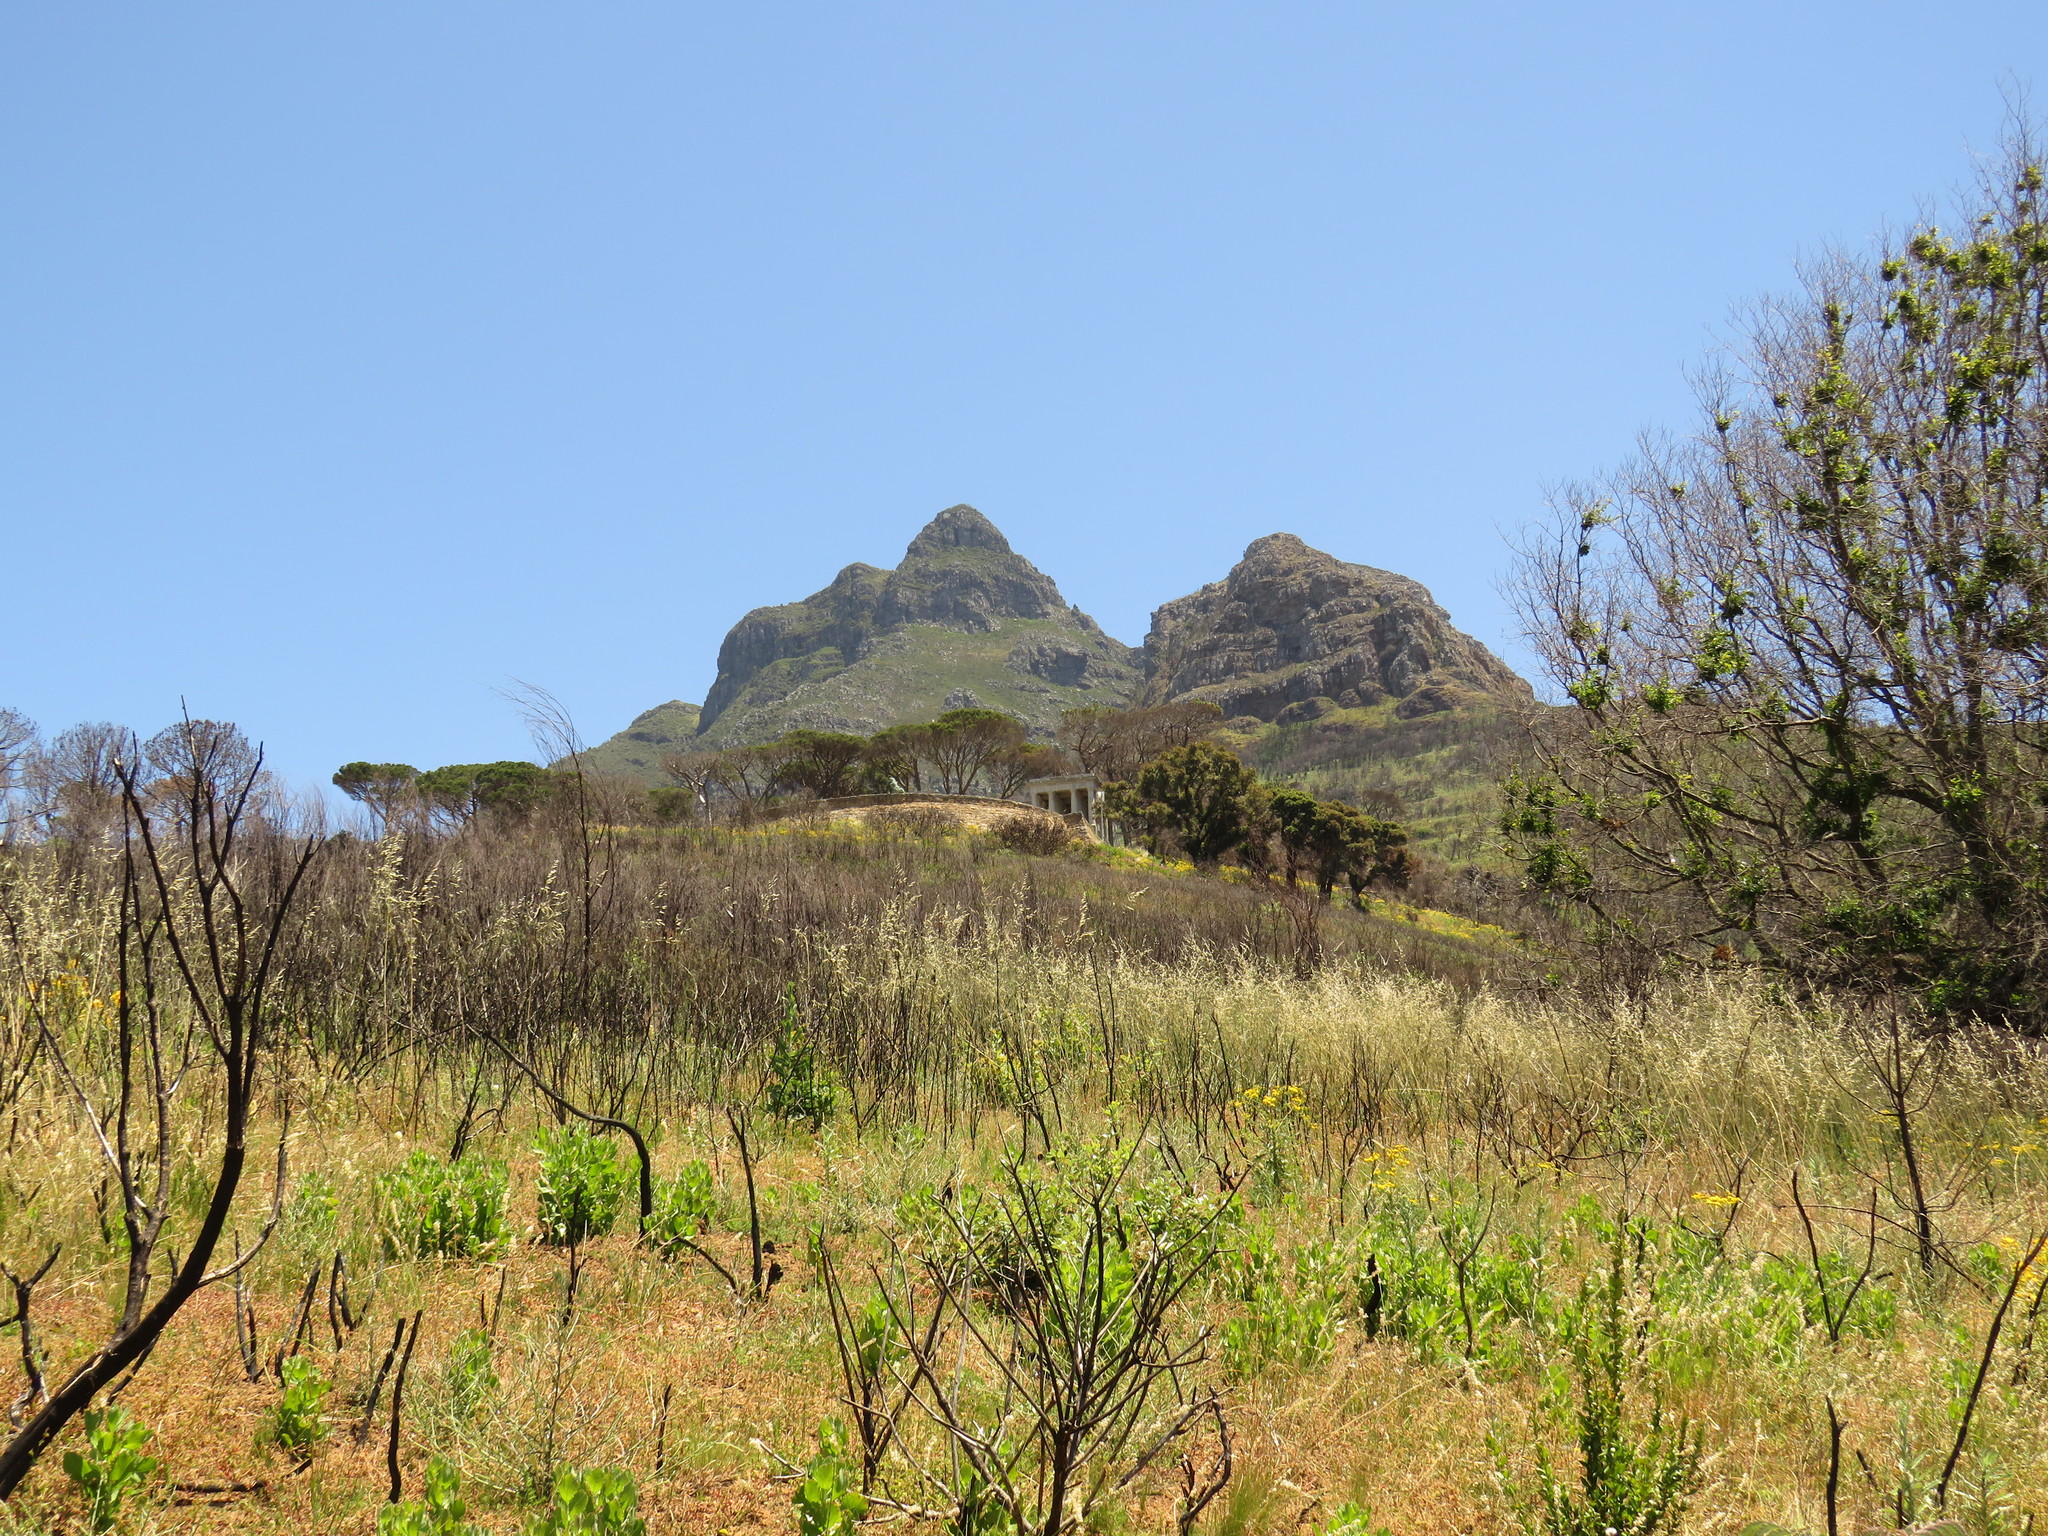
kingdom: Plantae
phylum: Tracheophyta
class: Magnoliopsida
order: Asterales
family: Asteraceae
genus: Osteospermum
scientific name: Osteospermum moniliferum
